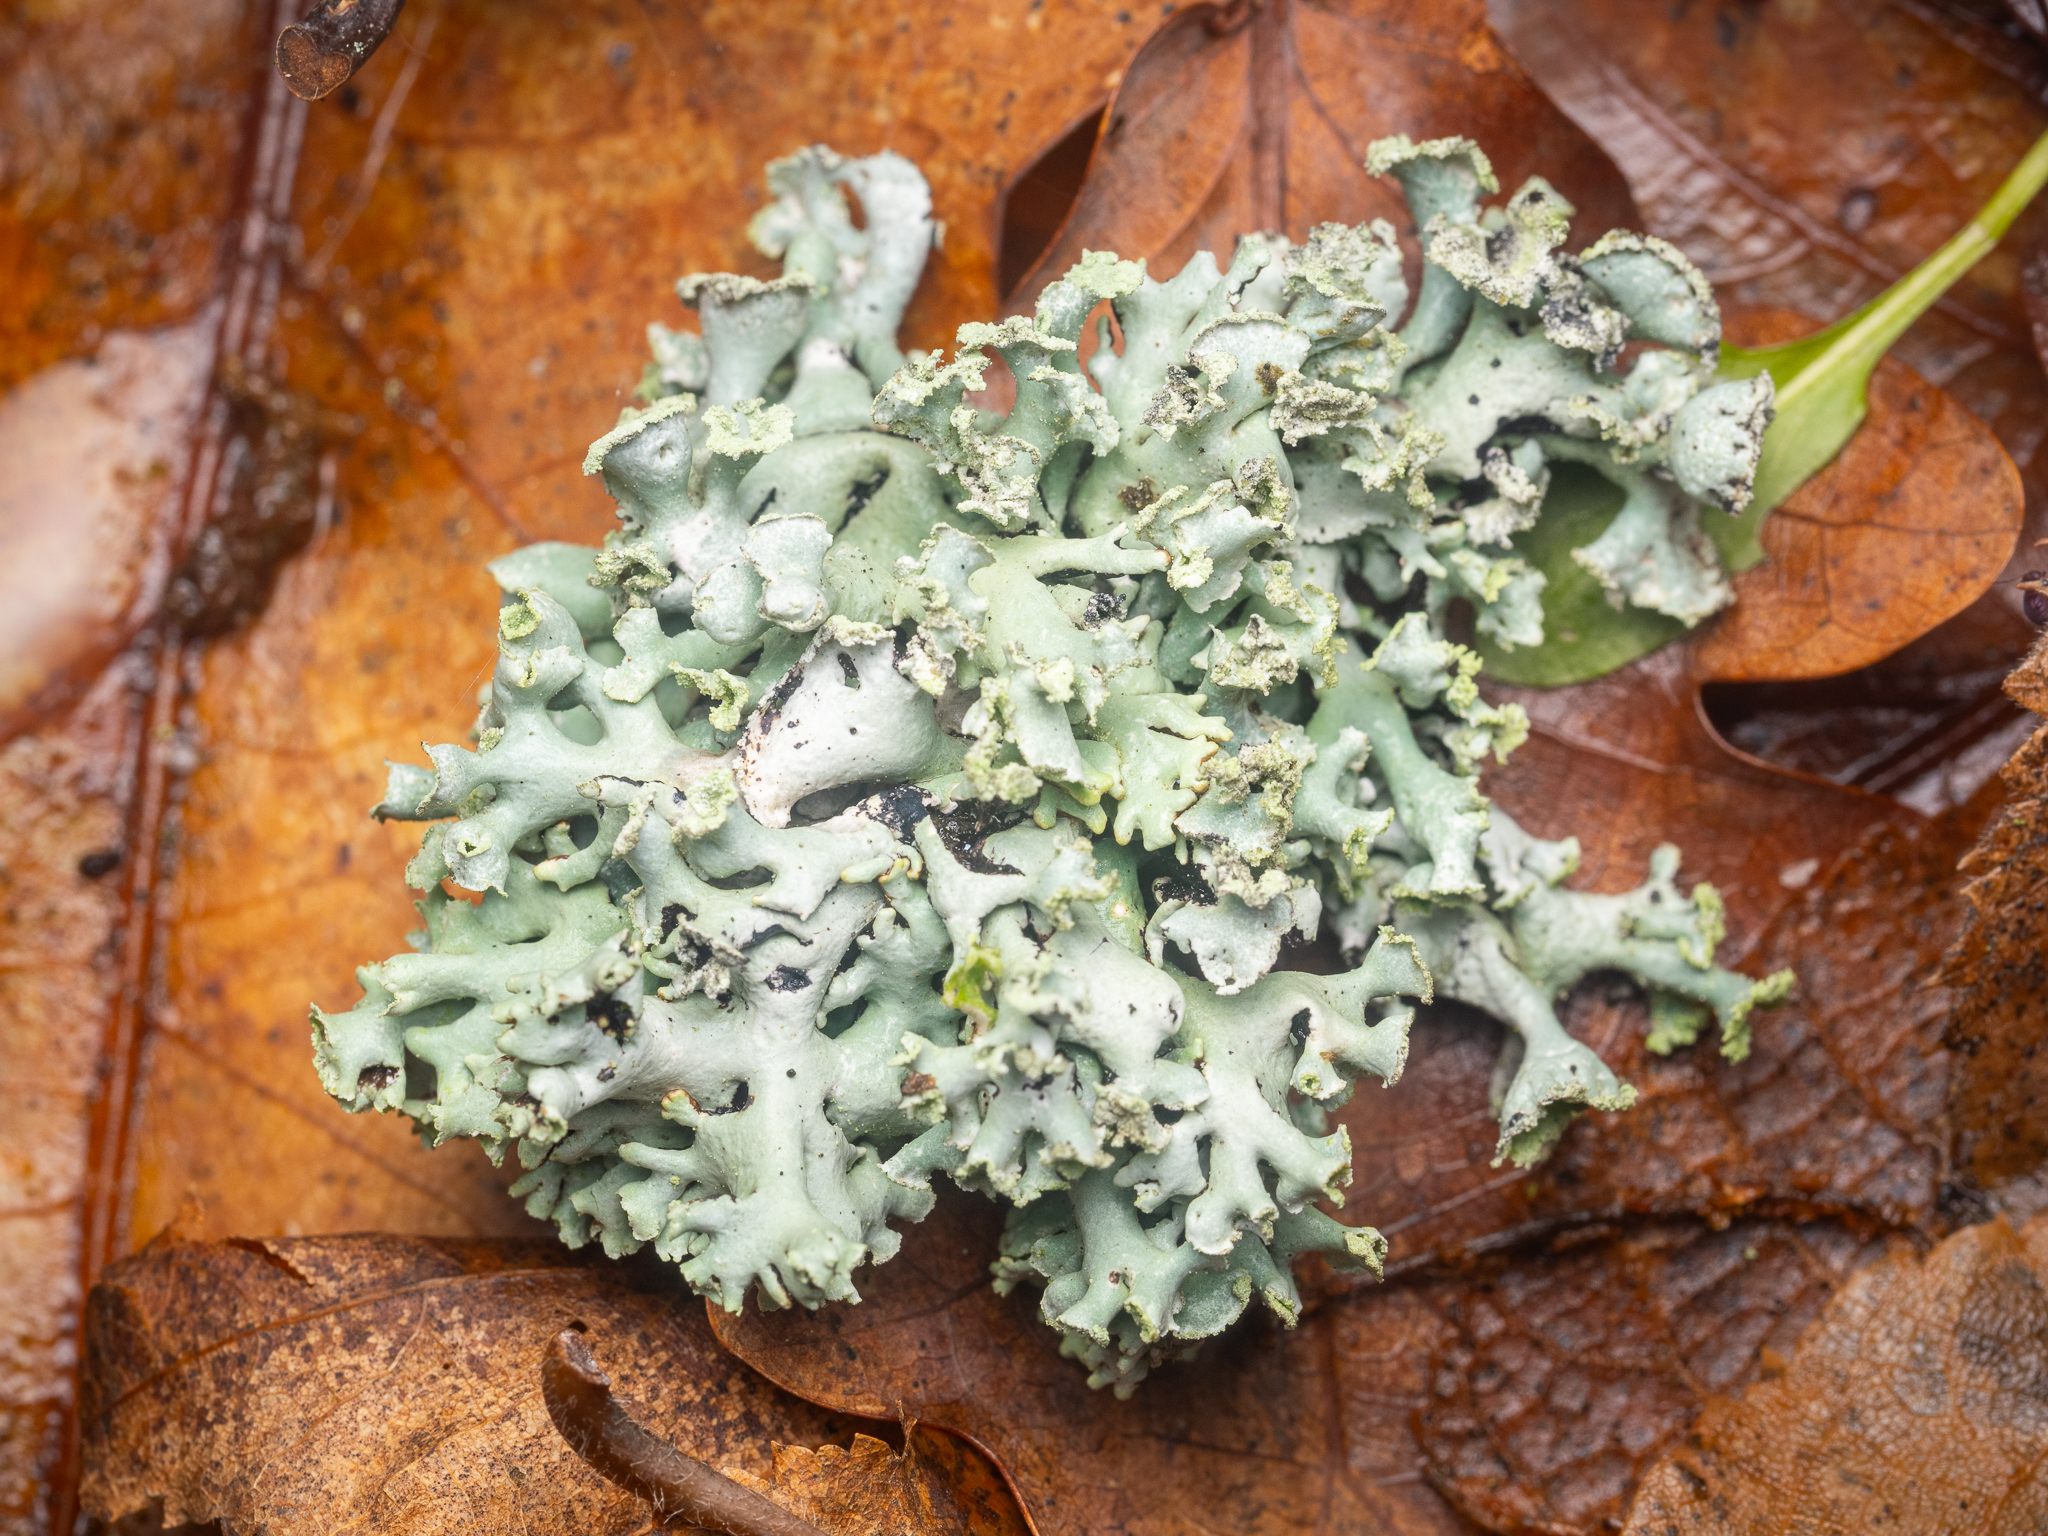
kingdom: Fungi
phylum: Ascomycota
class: Lecanoromycetes
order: Lecanorales
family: Parmeliaceae
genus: Hypogymnia
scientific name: Hypogymnia physodes
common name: Dark crottle
